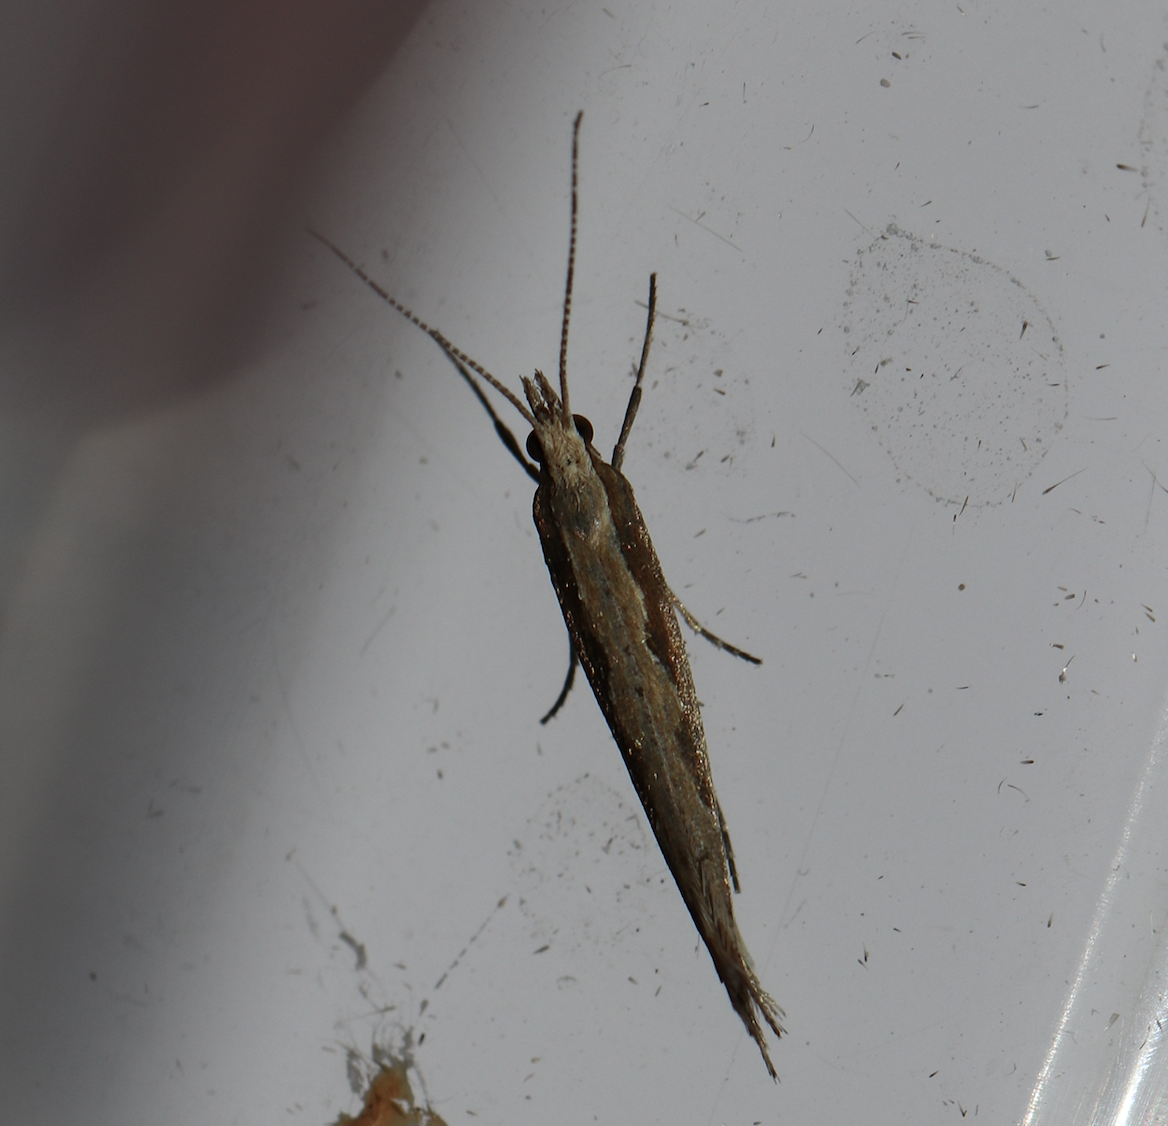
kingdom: Animalia
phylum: Arthropoda
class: Insecta
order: Lepidoptera
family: Plutellidae
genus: Plutella
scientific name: Plutella xylostella
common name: Diamond-back moth
